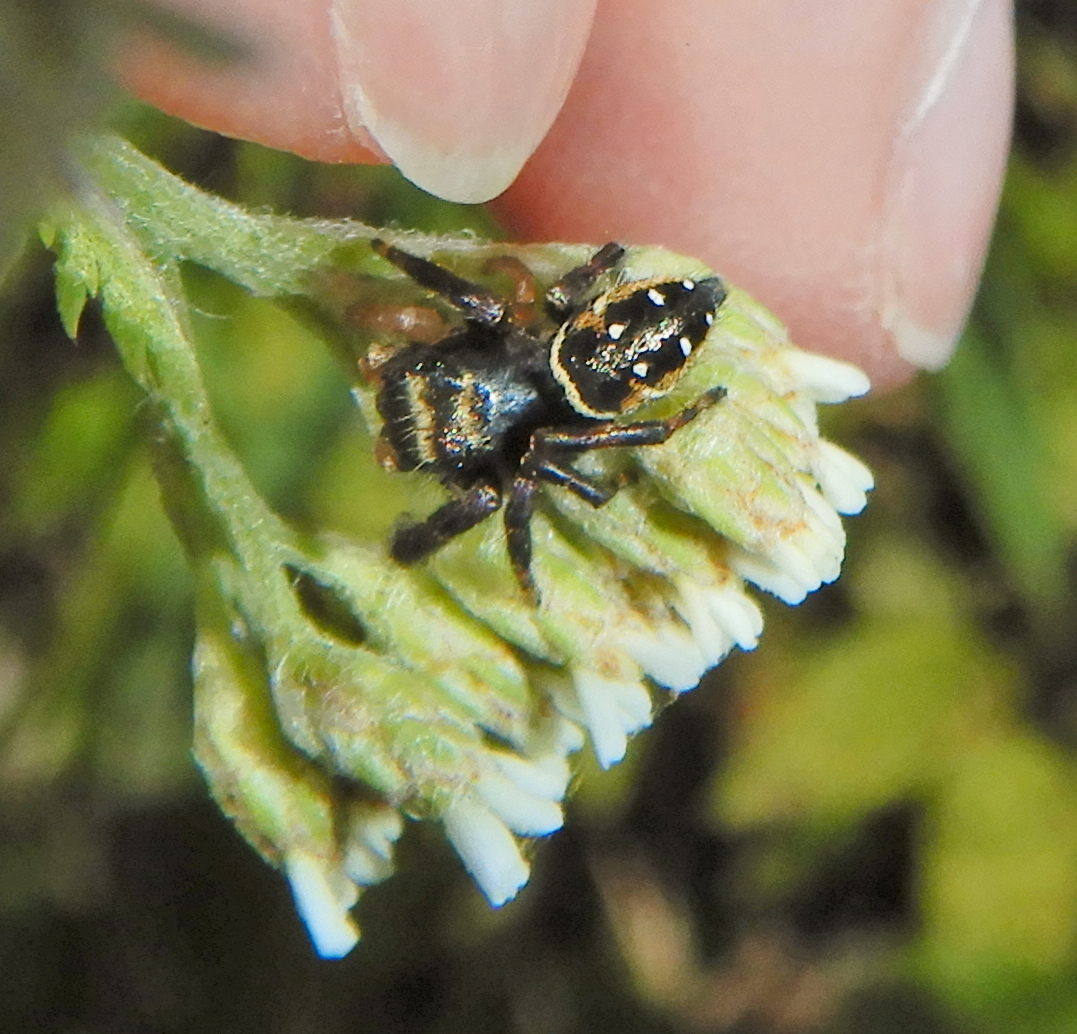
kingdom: Animalia
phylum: Arthropoda
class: Arachnida
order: Araneae
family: Salticidae
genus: Phidippus
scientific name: Phidippus clarus
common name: Brilliant jumping spider
